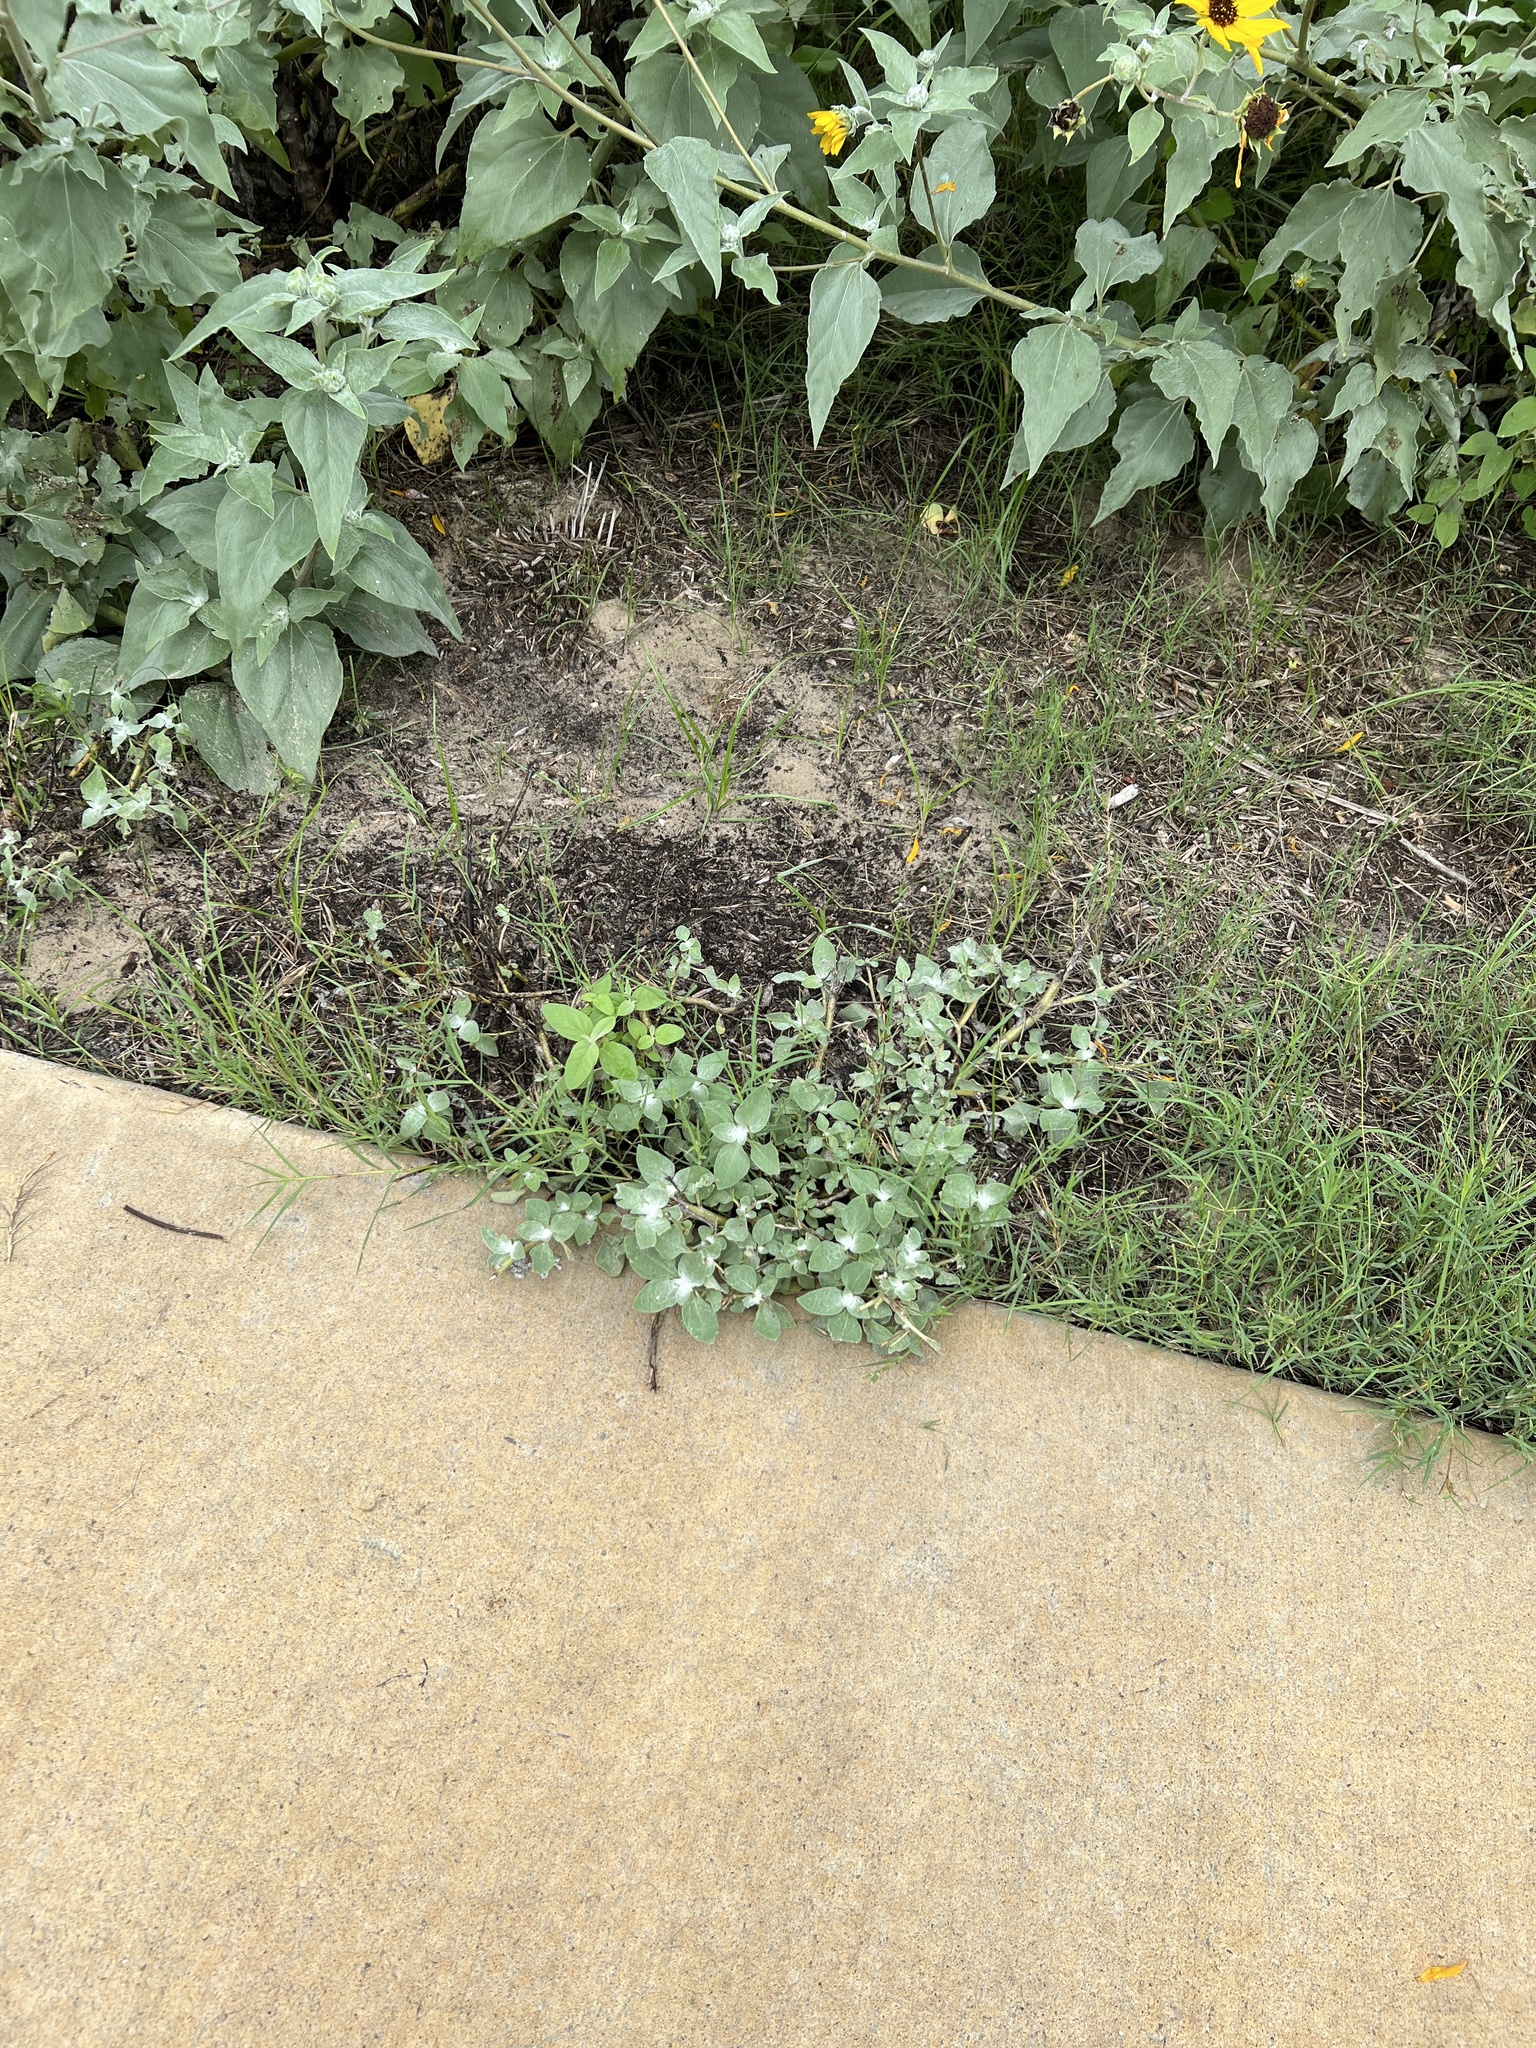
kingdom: Plantae
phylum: Tracheophyta
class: Magnoliopsida
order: Asterales
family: Asteraceae
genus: Helianthus
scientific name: Helianthus argophyllus
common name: Silverleaf sunflower
